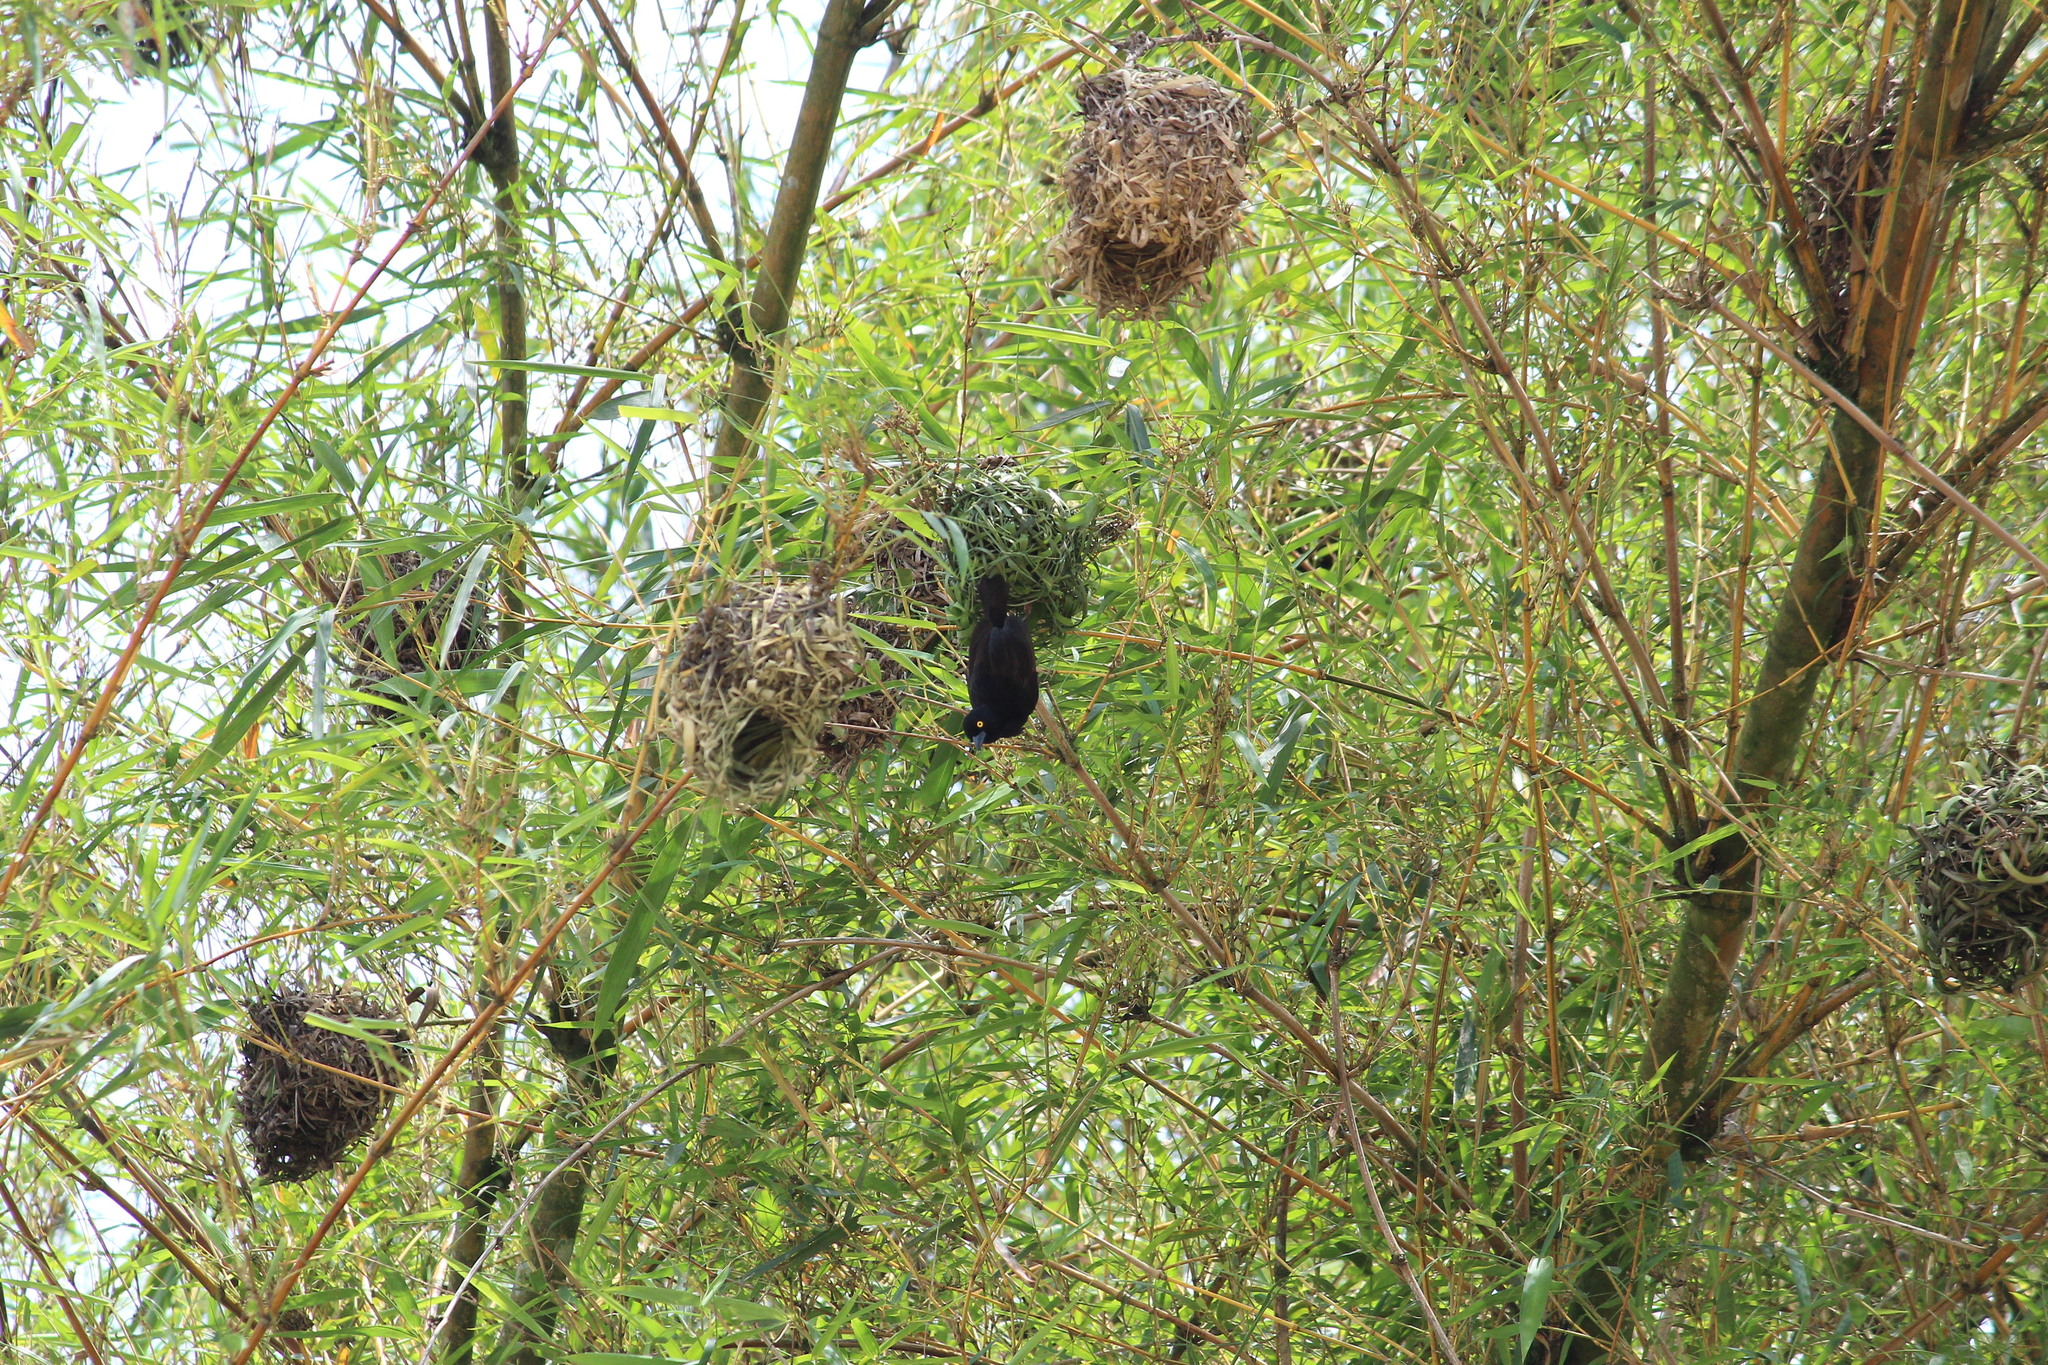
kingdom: Animalia
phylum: Chordata
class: Aves
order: Passeriformes
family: Ploceidae
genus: Ploceus
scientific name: Ploceus nigerrimus
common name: Vieillot's black weaver
